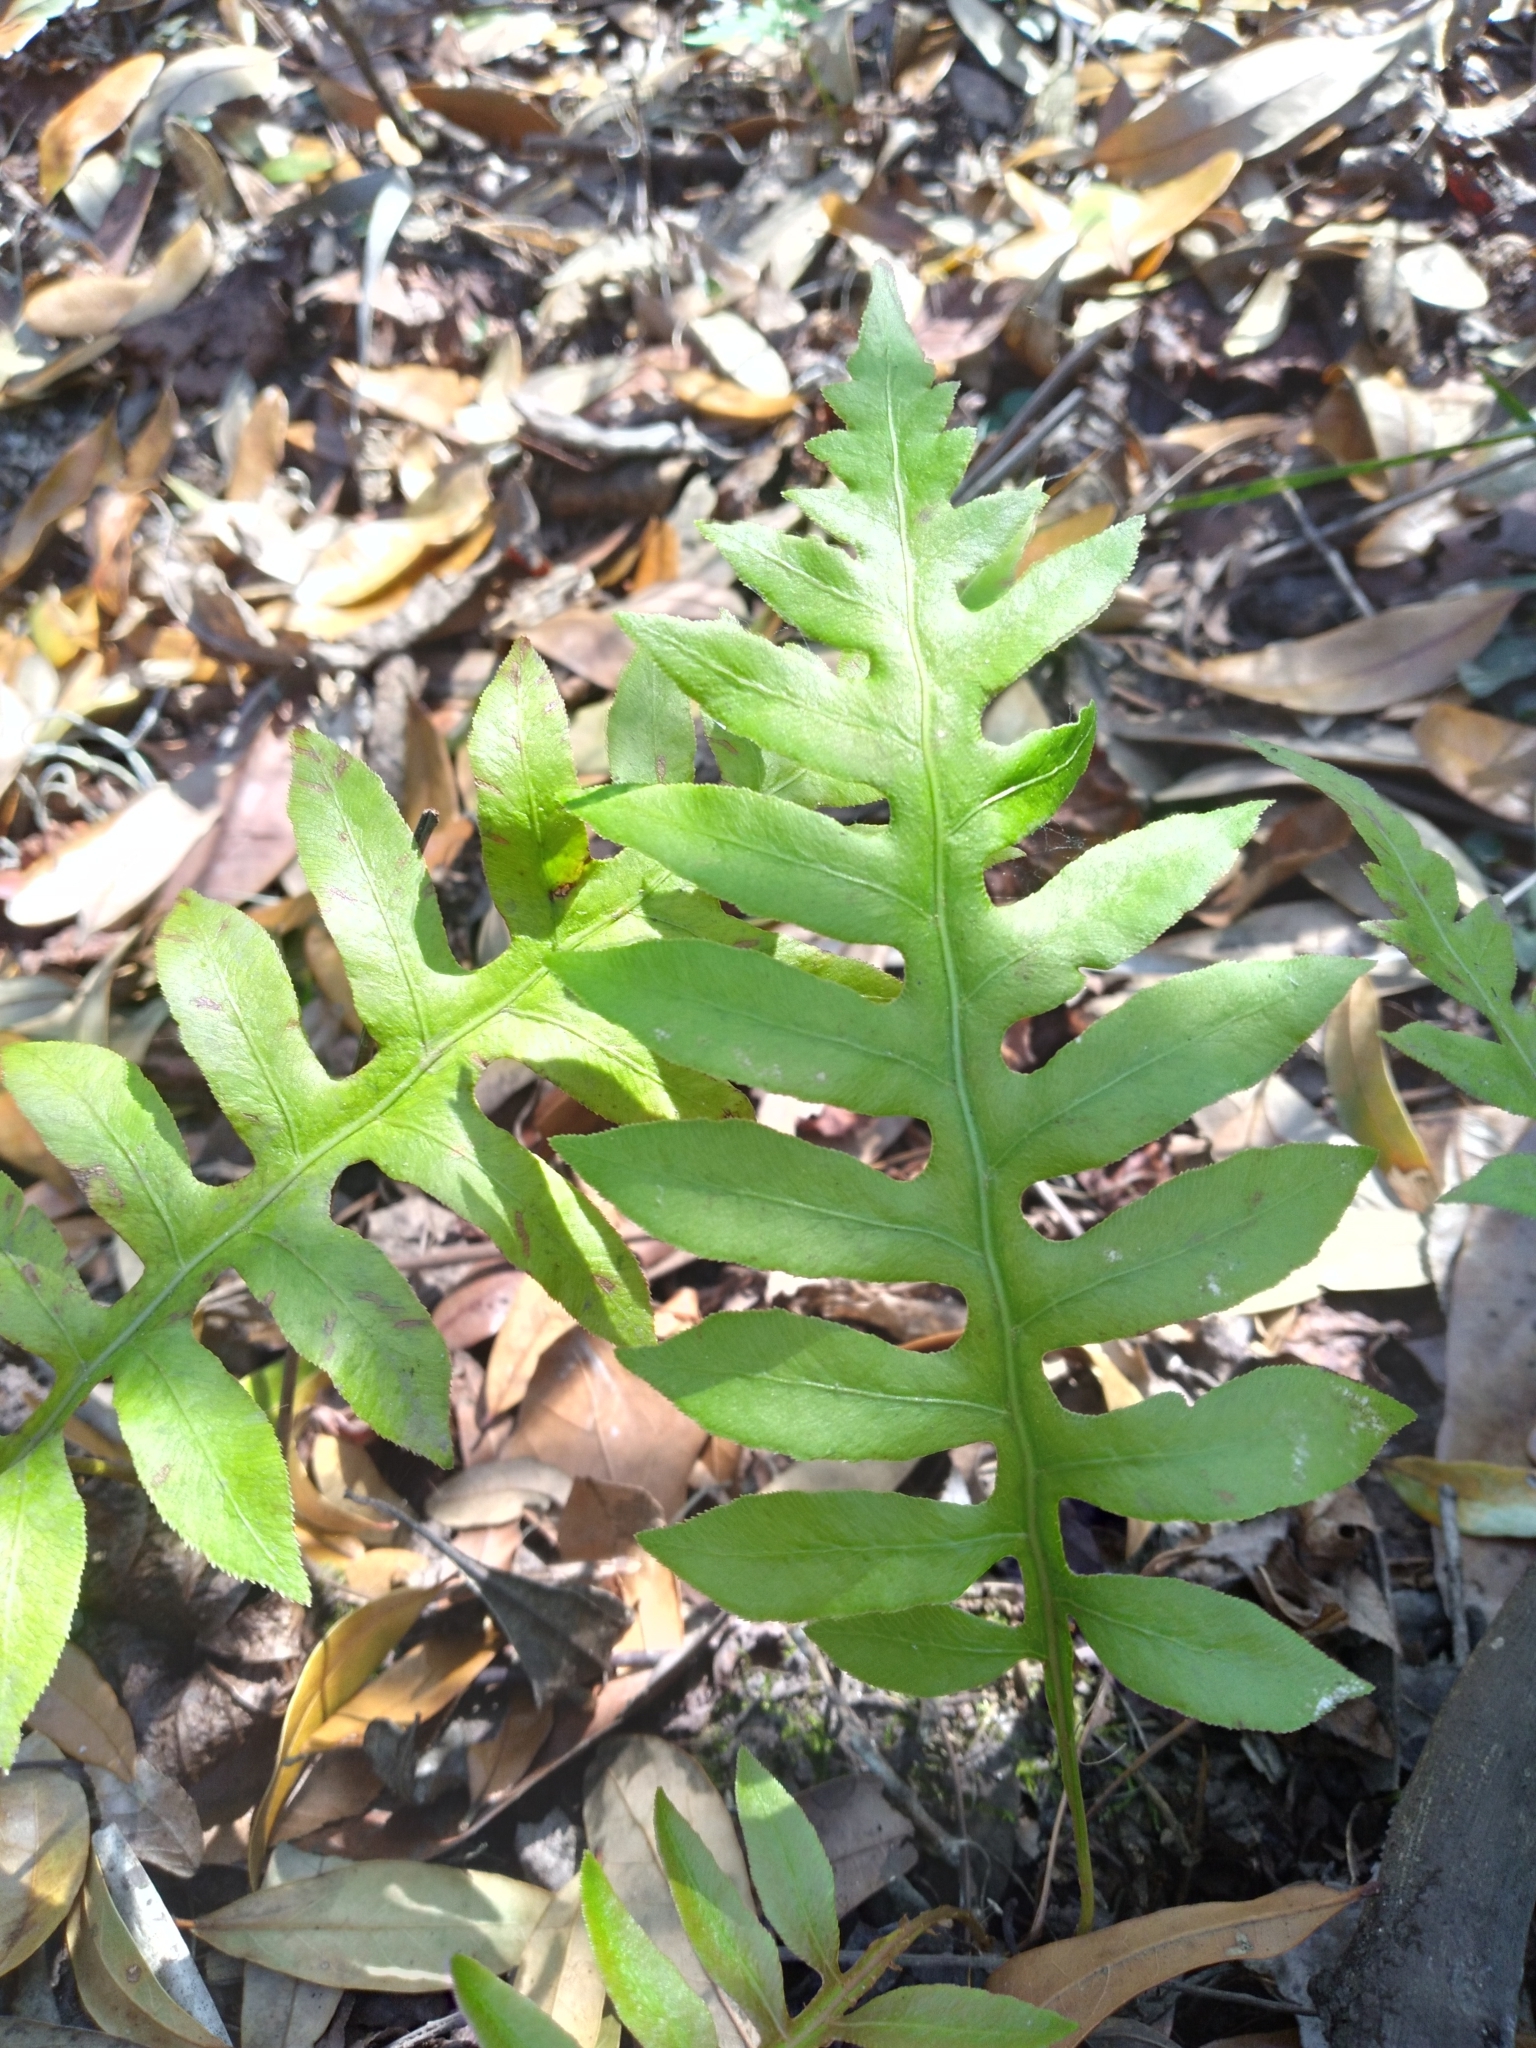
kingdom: Plantae
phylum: Tracheophyta
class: Polypodiopsida
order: Polypodiales
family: Blechnaceae
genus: Lorinseria
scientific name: Lorinseria areolata
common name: Dwarf chain fern
